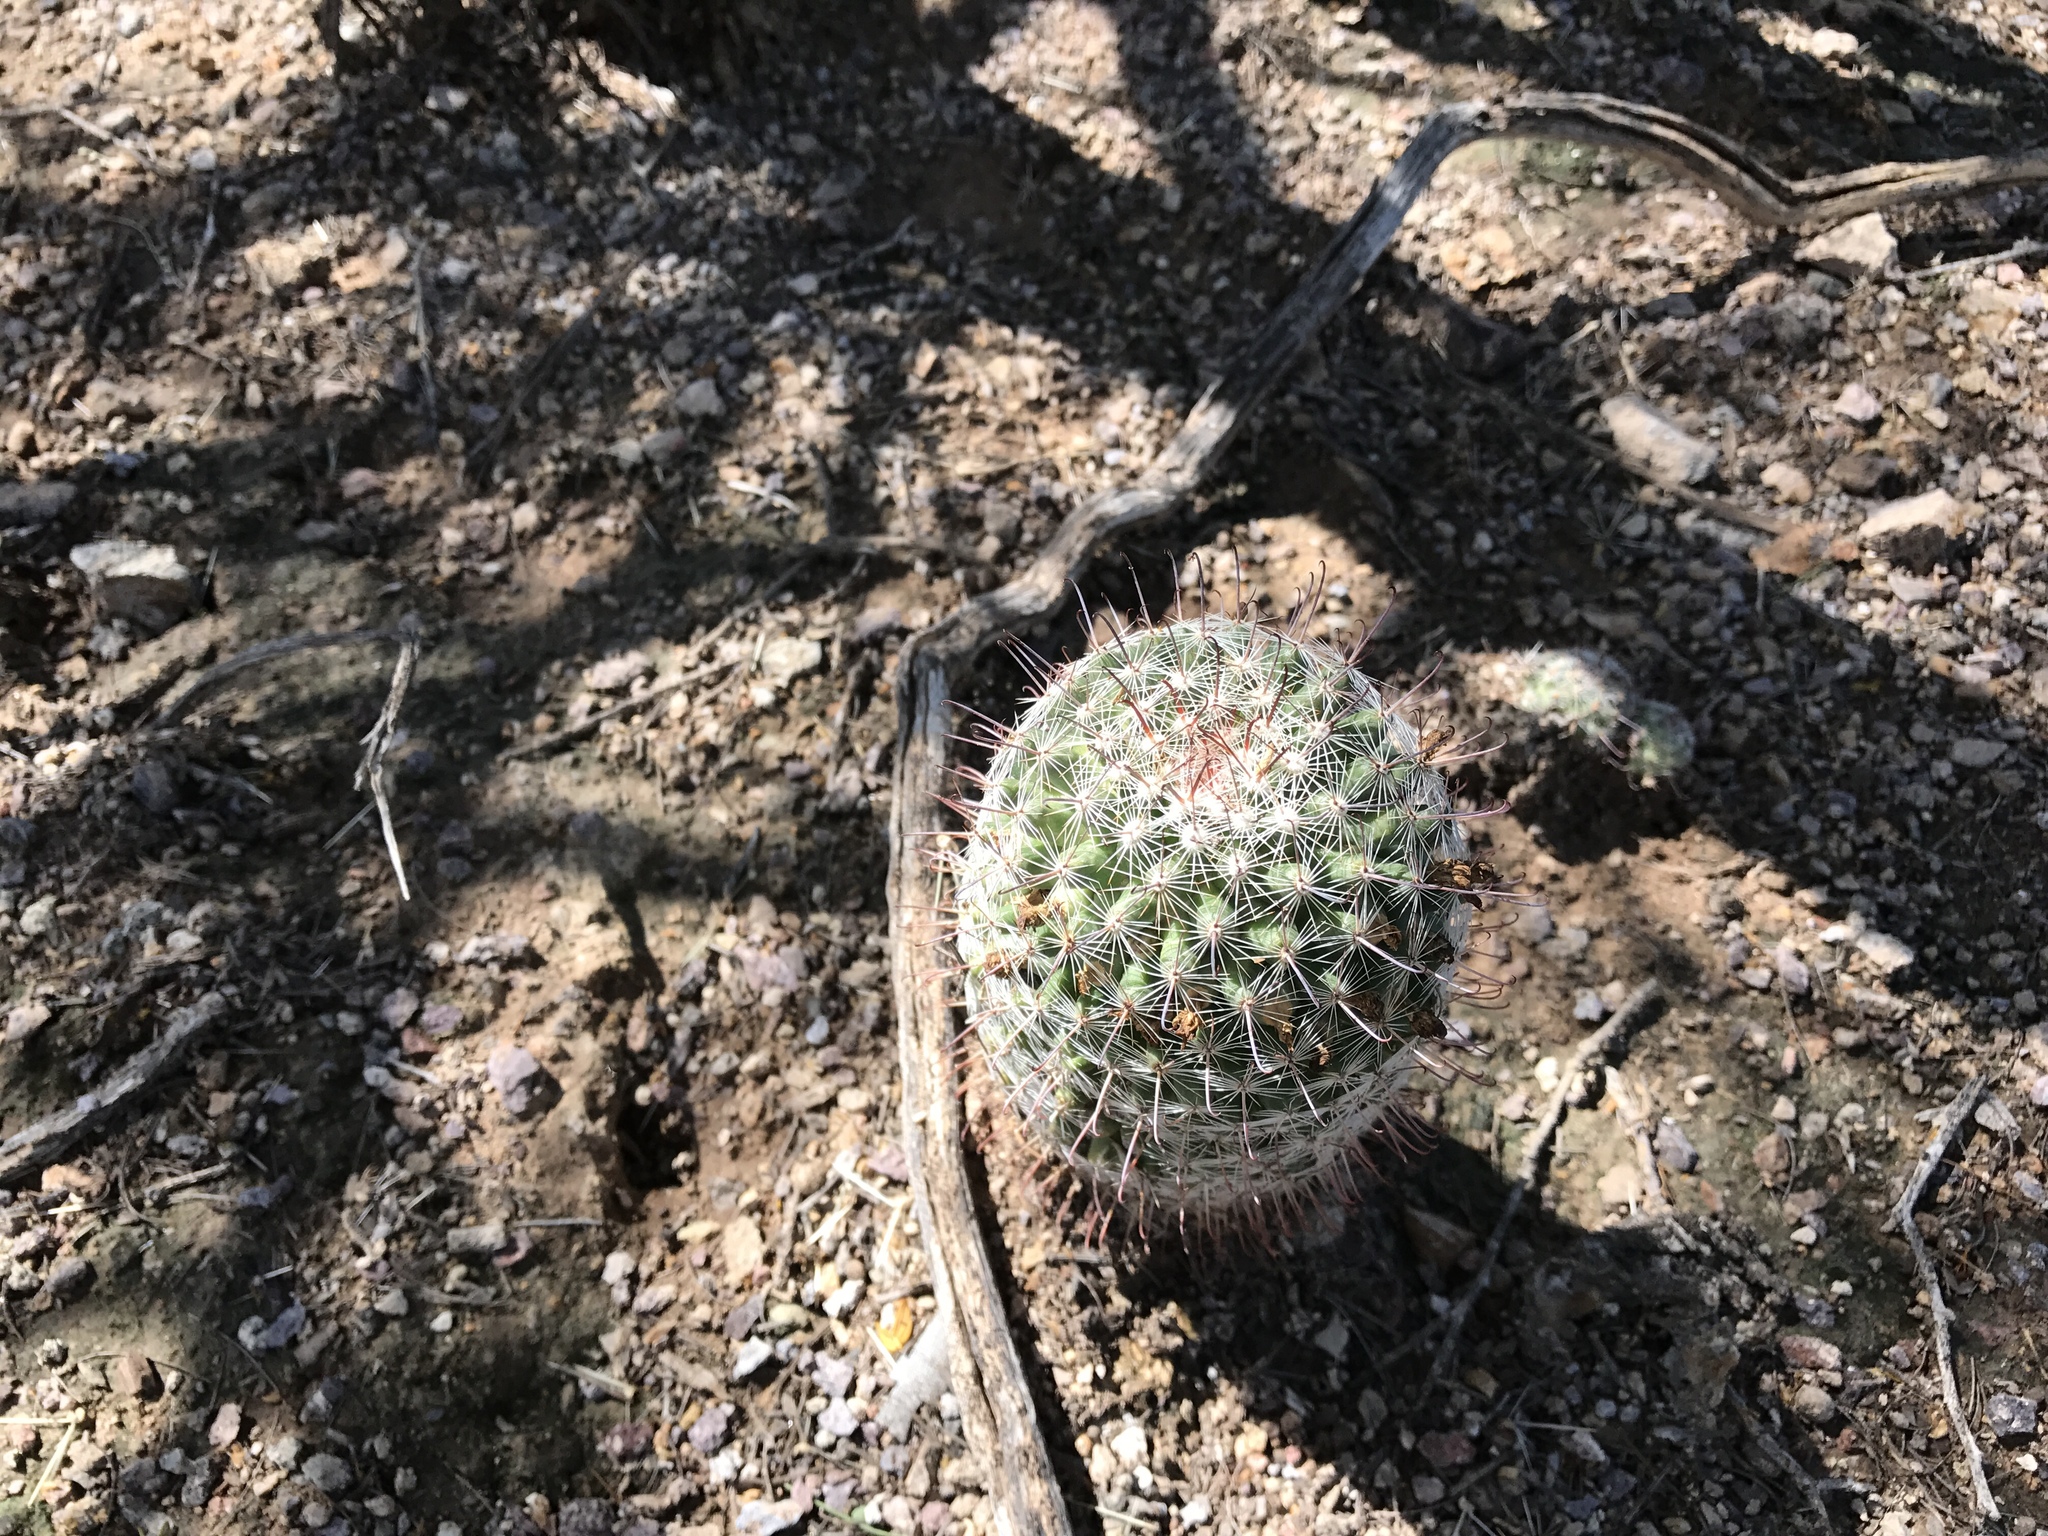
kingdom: Plantae
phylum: Tracheophyta
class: Magnoliopsida
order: Caryophyllales
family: Cactaceae
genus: Cochemiea
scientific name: Cochemiea grahamii
